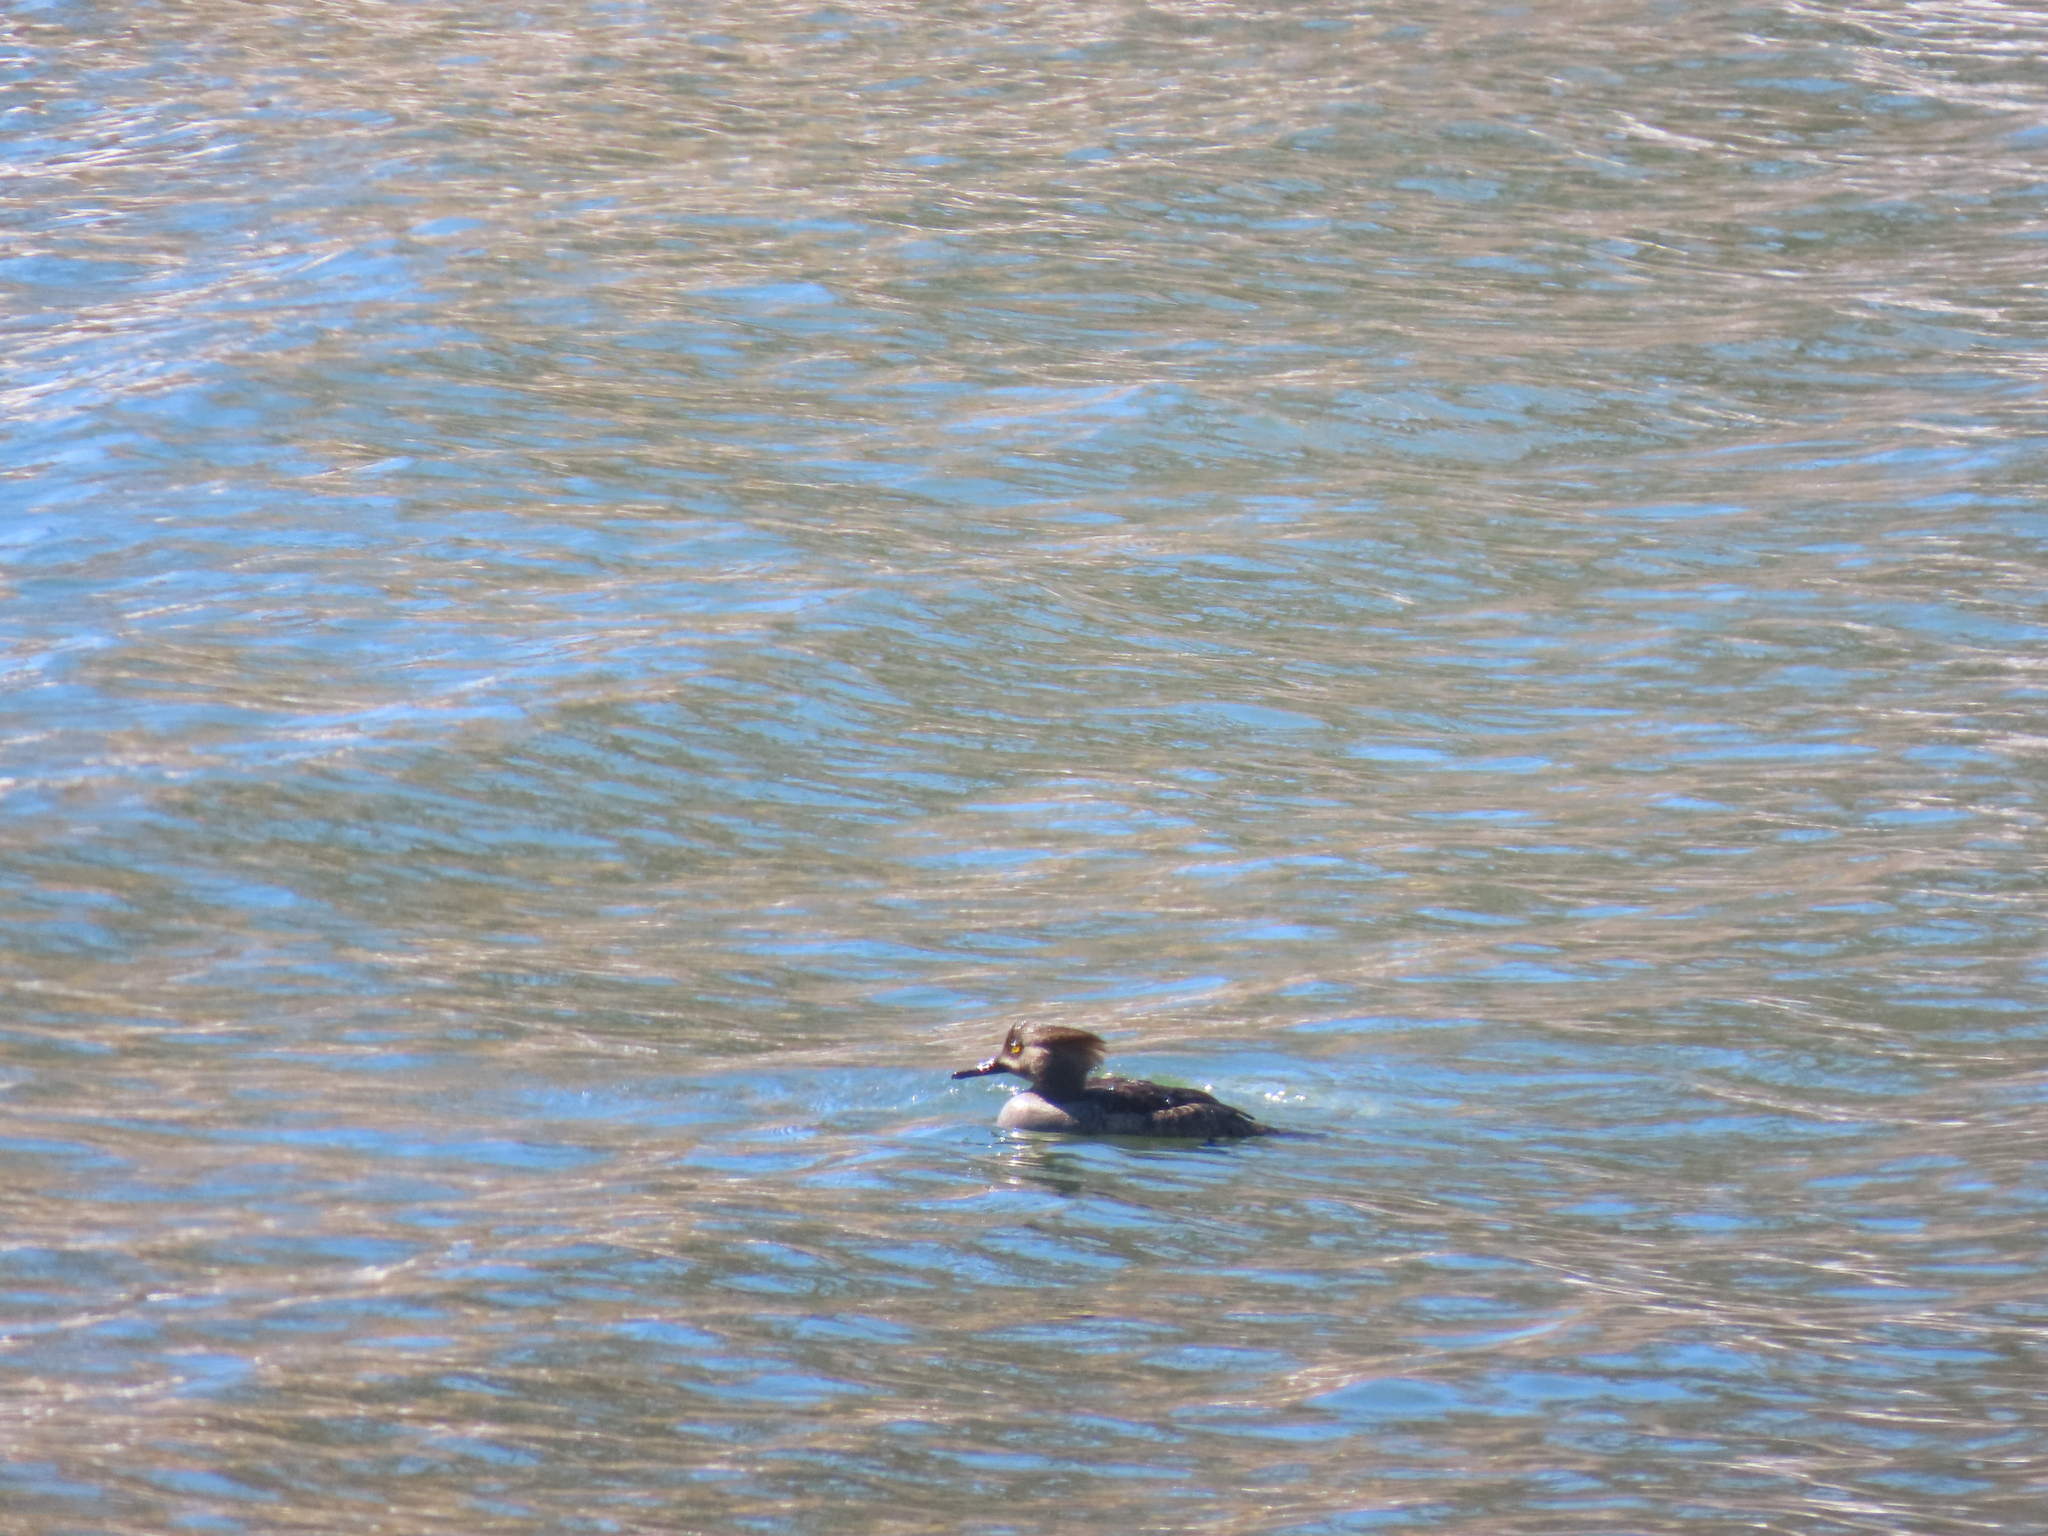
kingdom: Animalia
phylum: Chordata
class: Aves
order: Anseriformes
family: Anatidae
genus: Lophodytes
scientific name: Lophodytes cucullatus
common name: Hooded merganser
